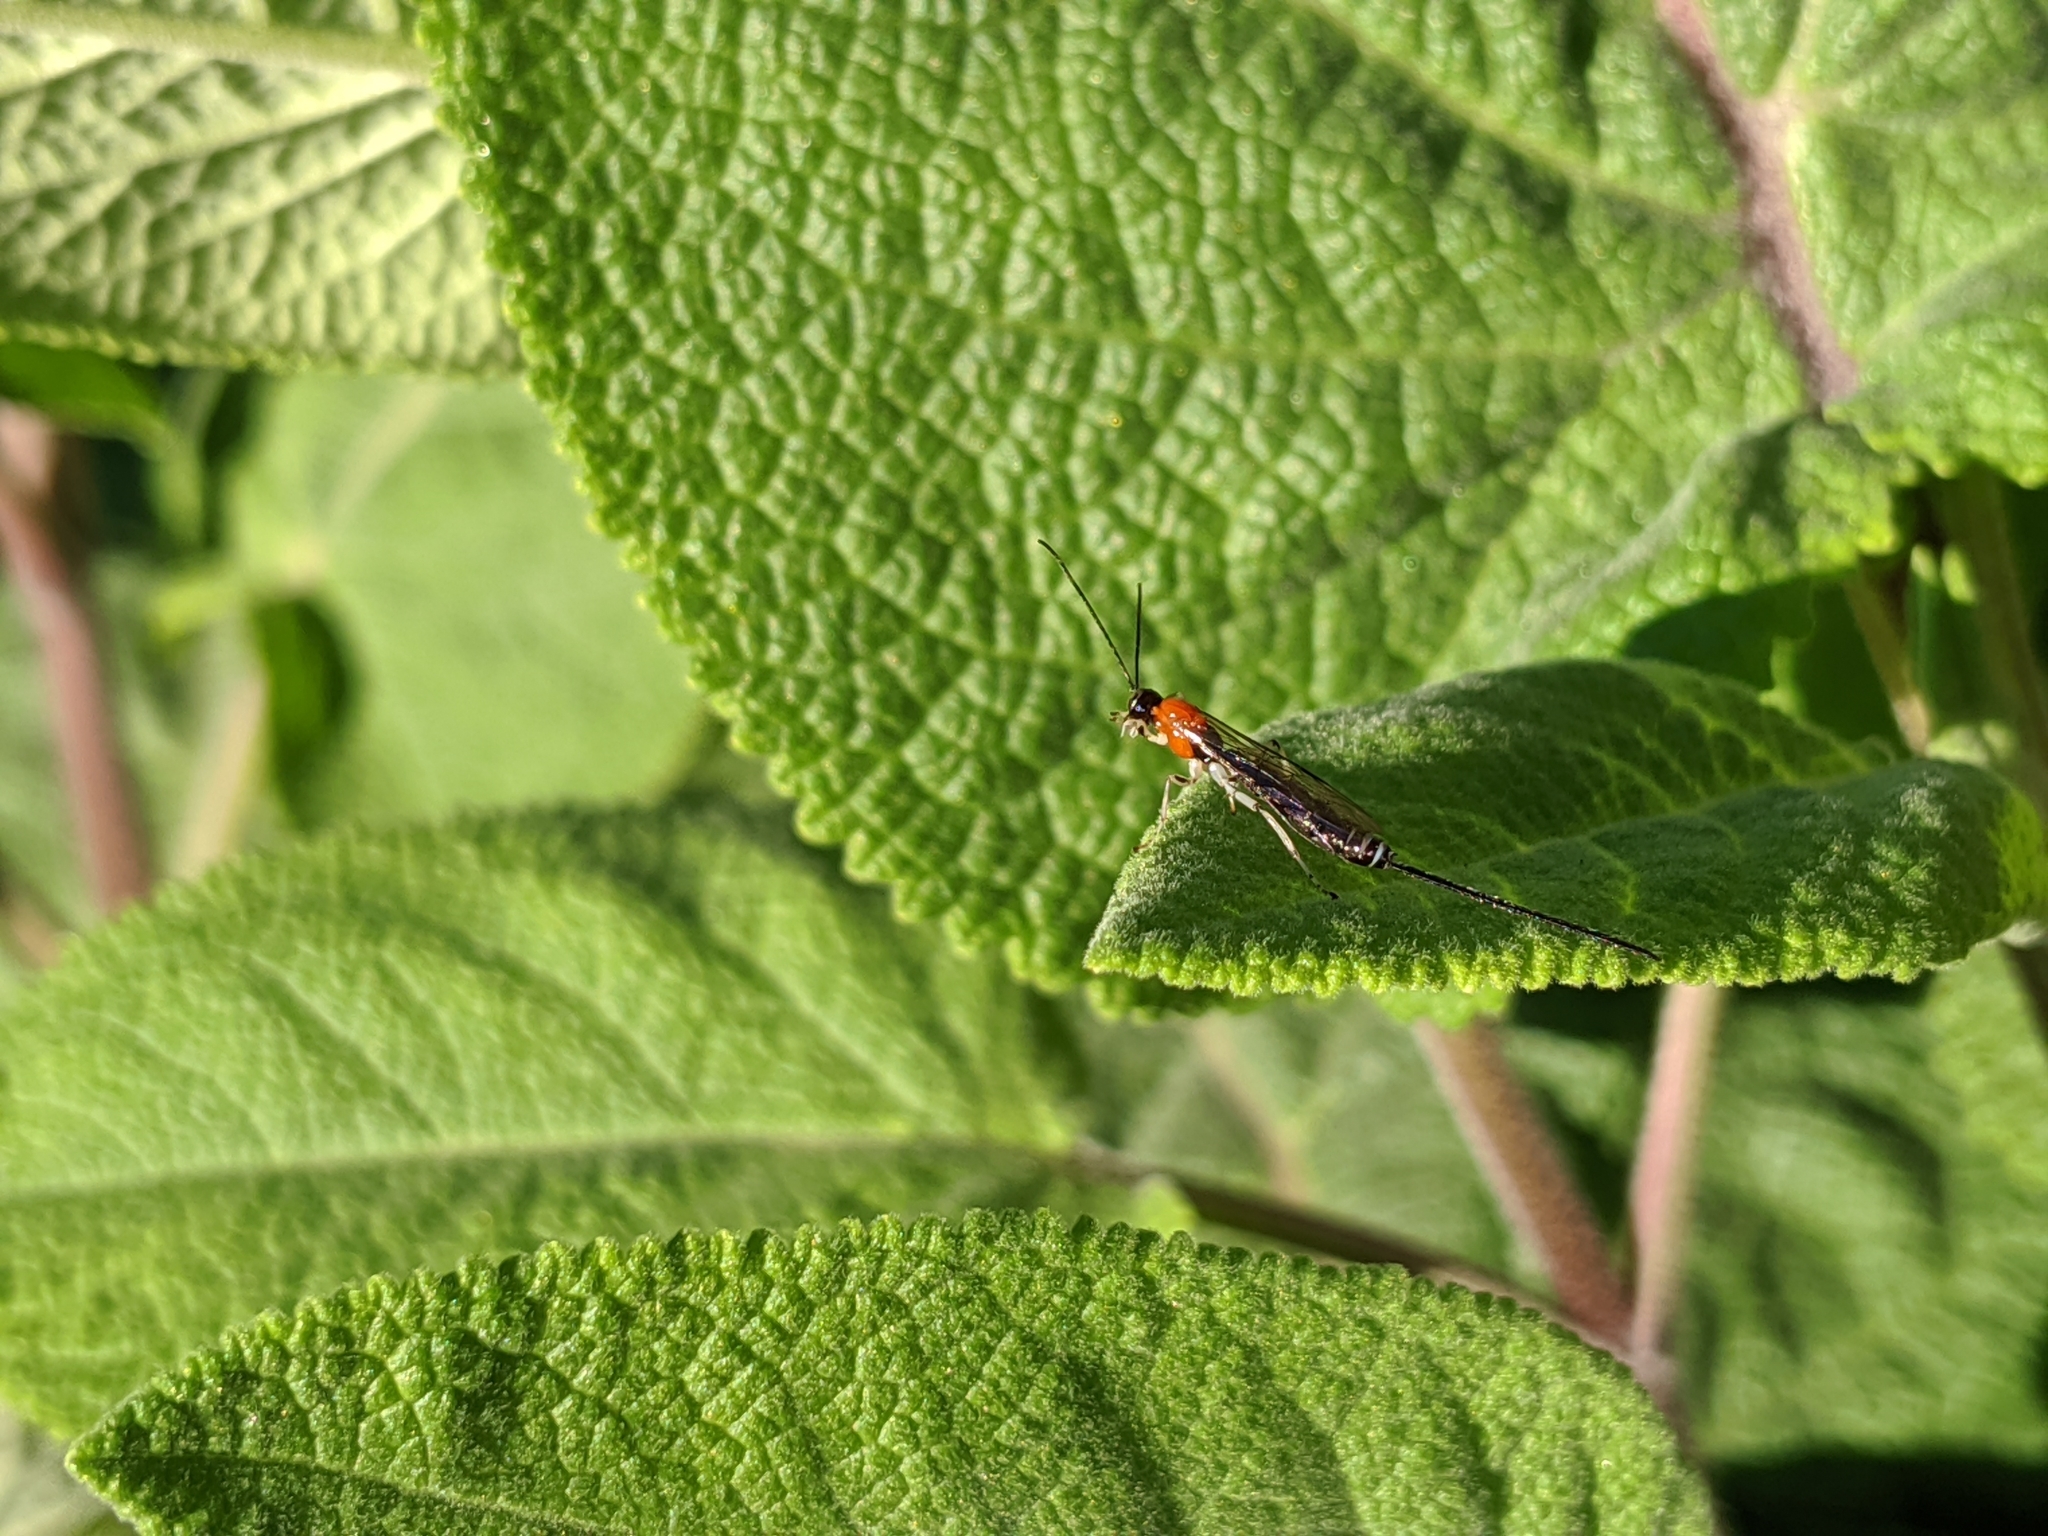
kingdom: Animalia
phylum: Arthropoda
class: Insecta
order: Hymenoptera
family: Ichneumonidae
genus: Calliephialtes
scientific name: Calliephialtes grapholithae
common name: Parasitoid wasp
